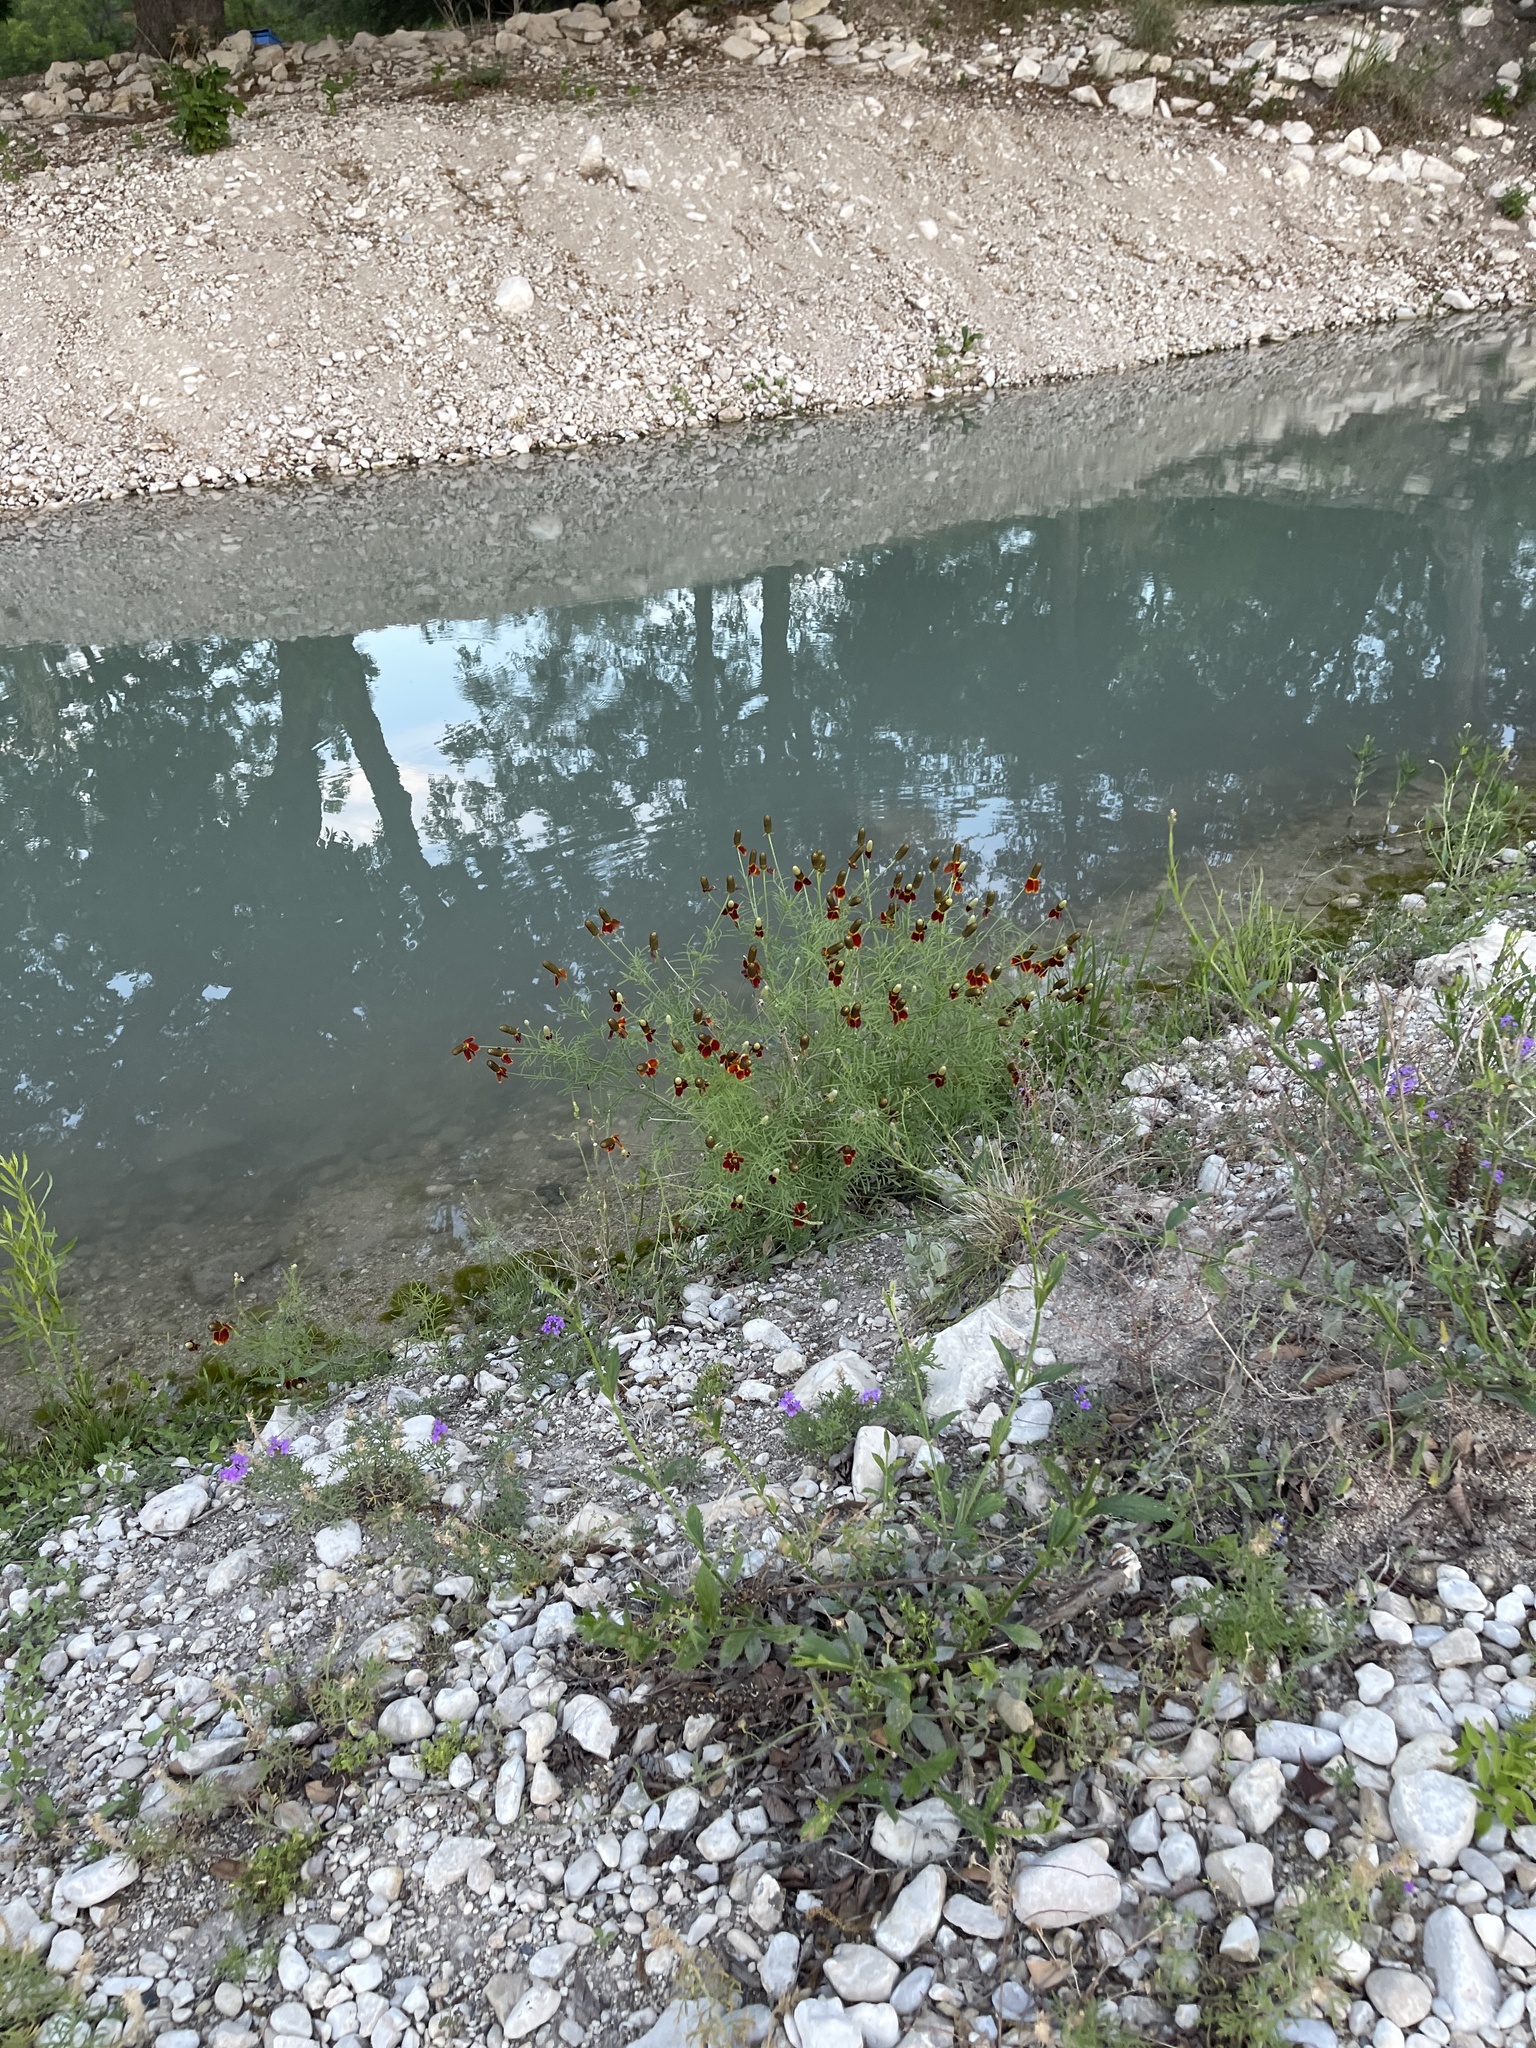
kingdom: Plantae
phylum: Tracheophyta
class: Magnoliopsida
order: Asterales
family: Asteraceae
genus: Ratibida
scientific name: Ratibida columnifera
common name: Prairie coneflower
